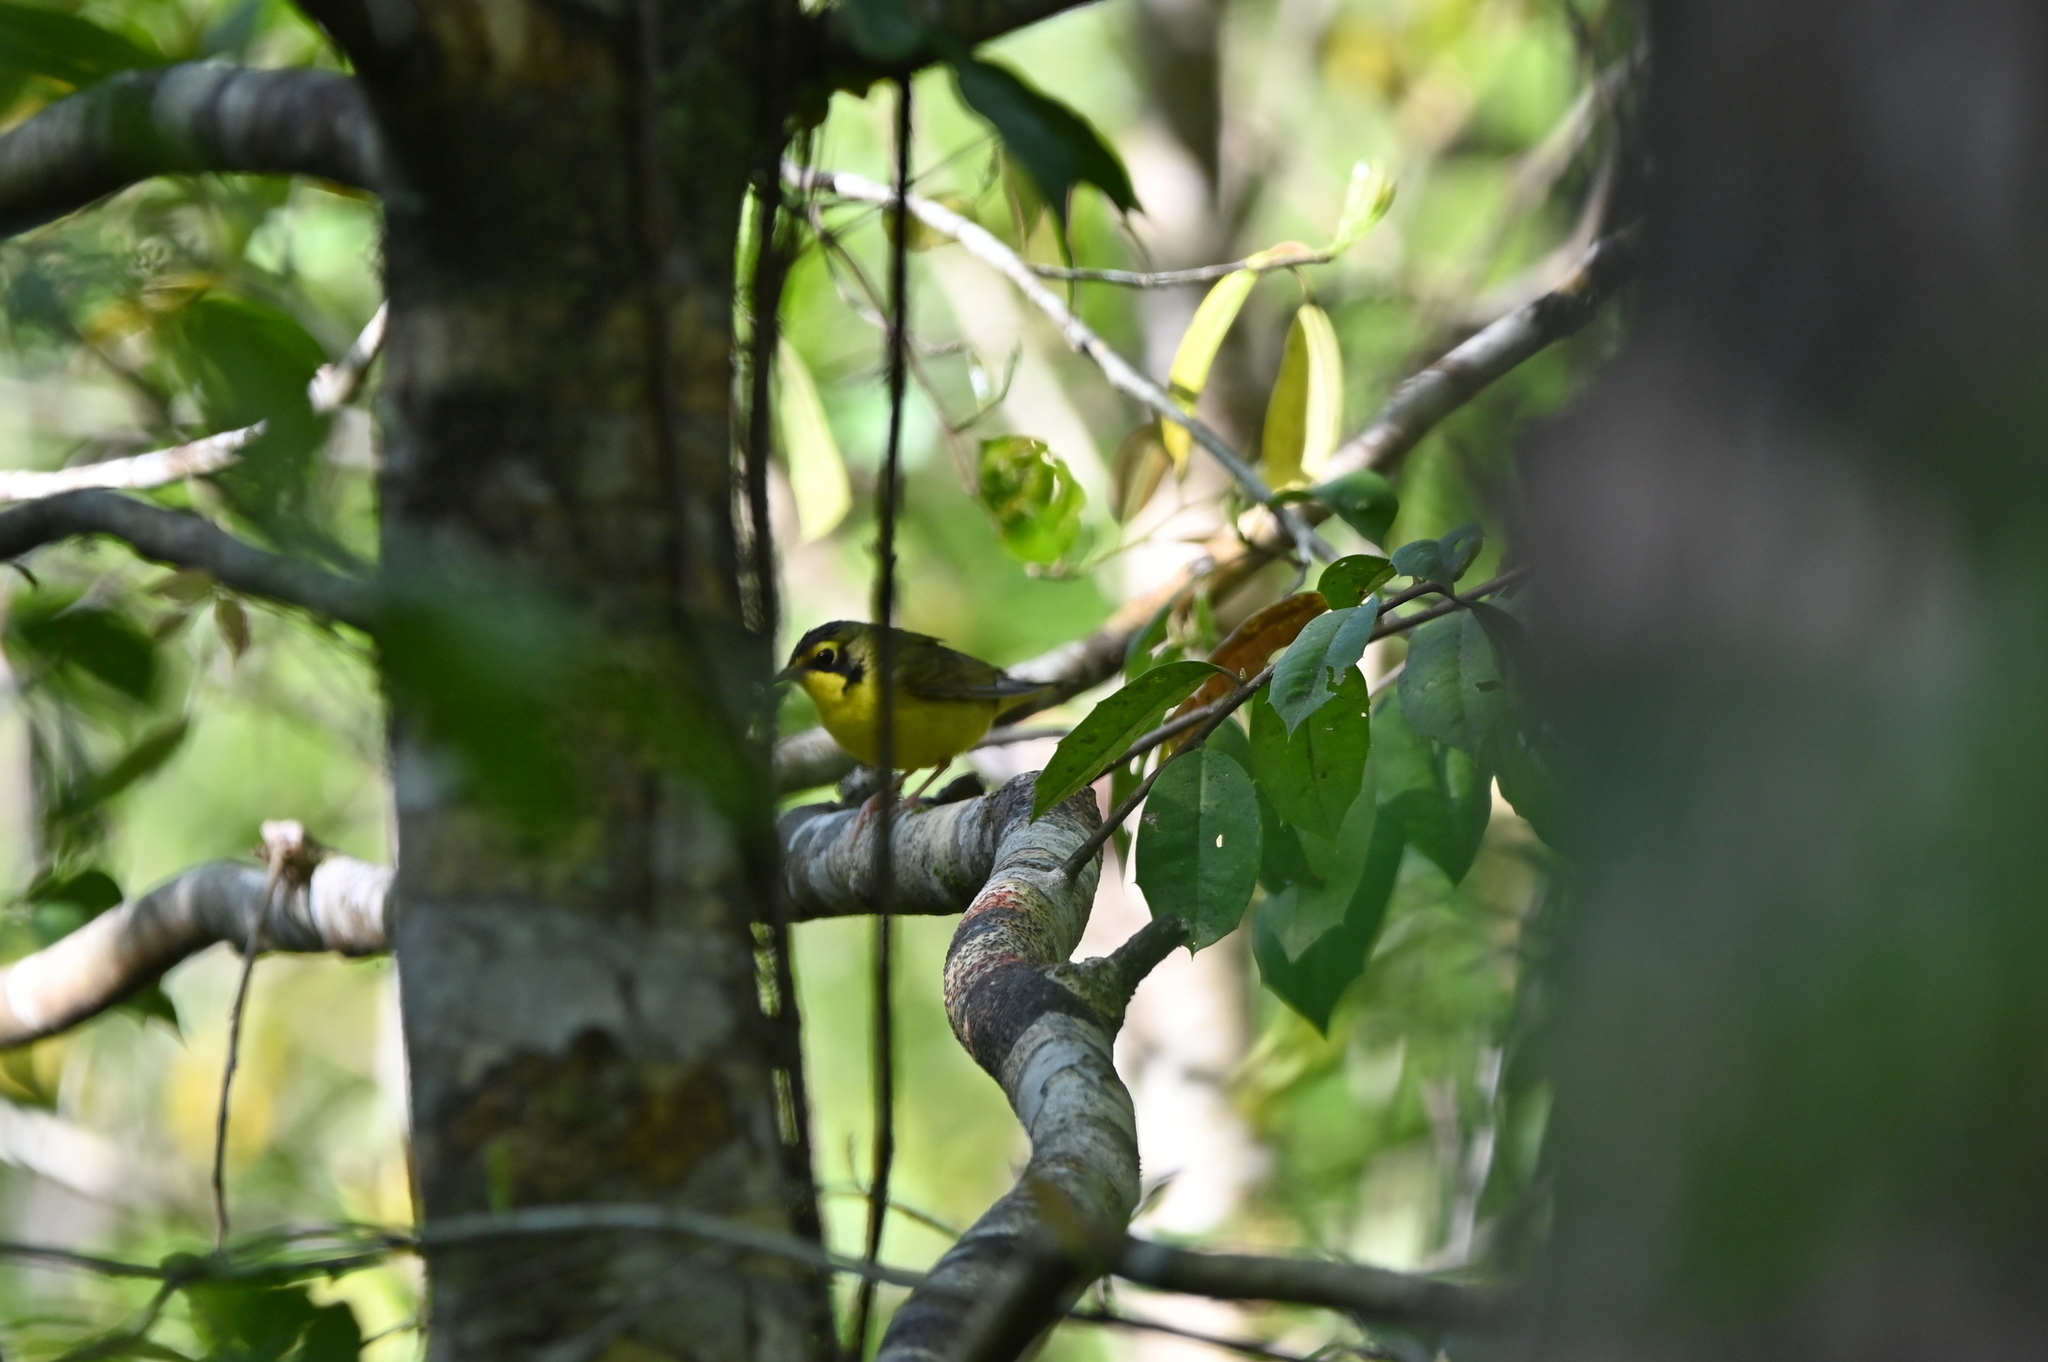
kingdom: Animalia
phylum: Chordata
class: Aves
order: Passeriformes
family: Parulidae
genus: Geothlypis
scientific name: Geothlypis formosa
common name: Kentucky warbler
